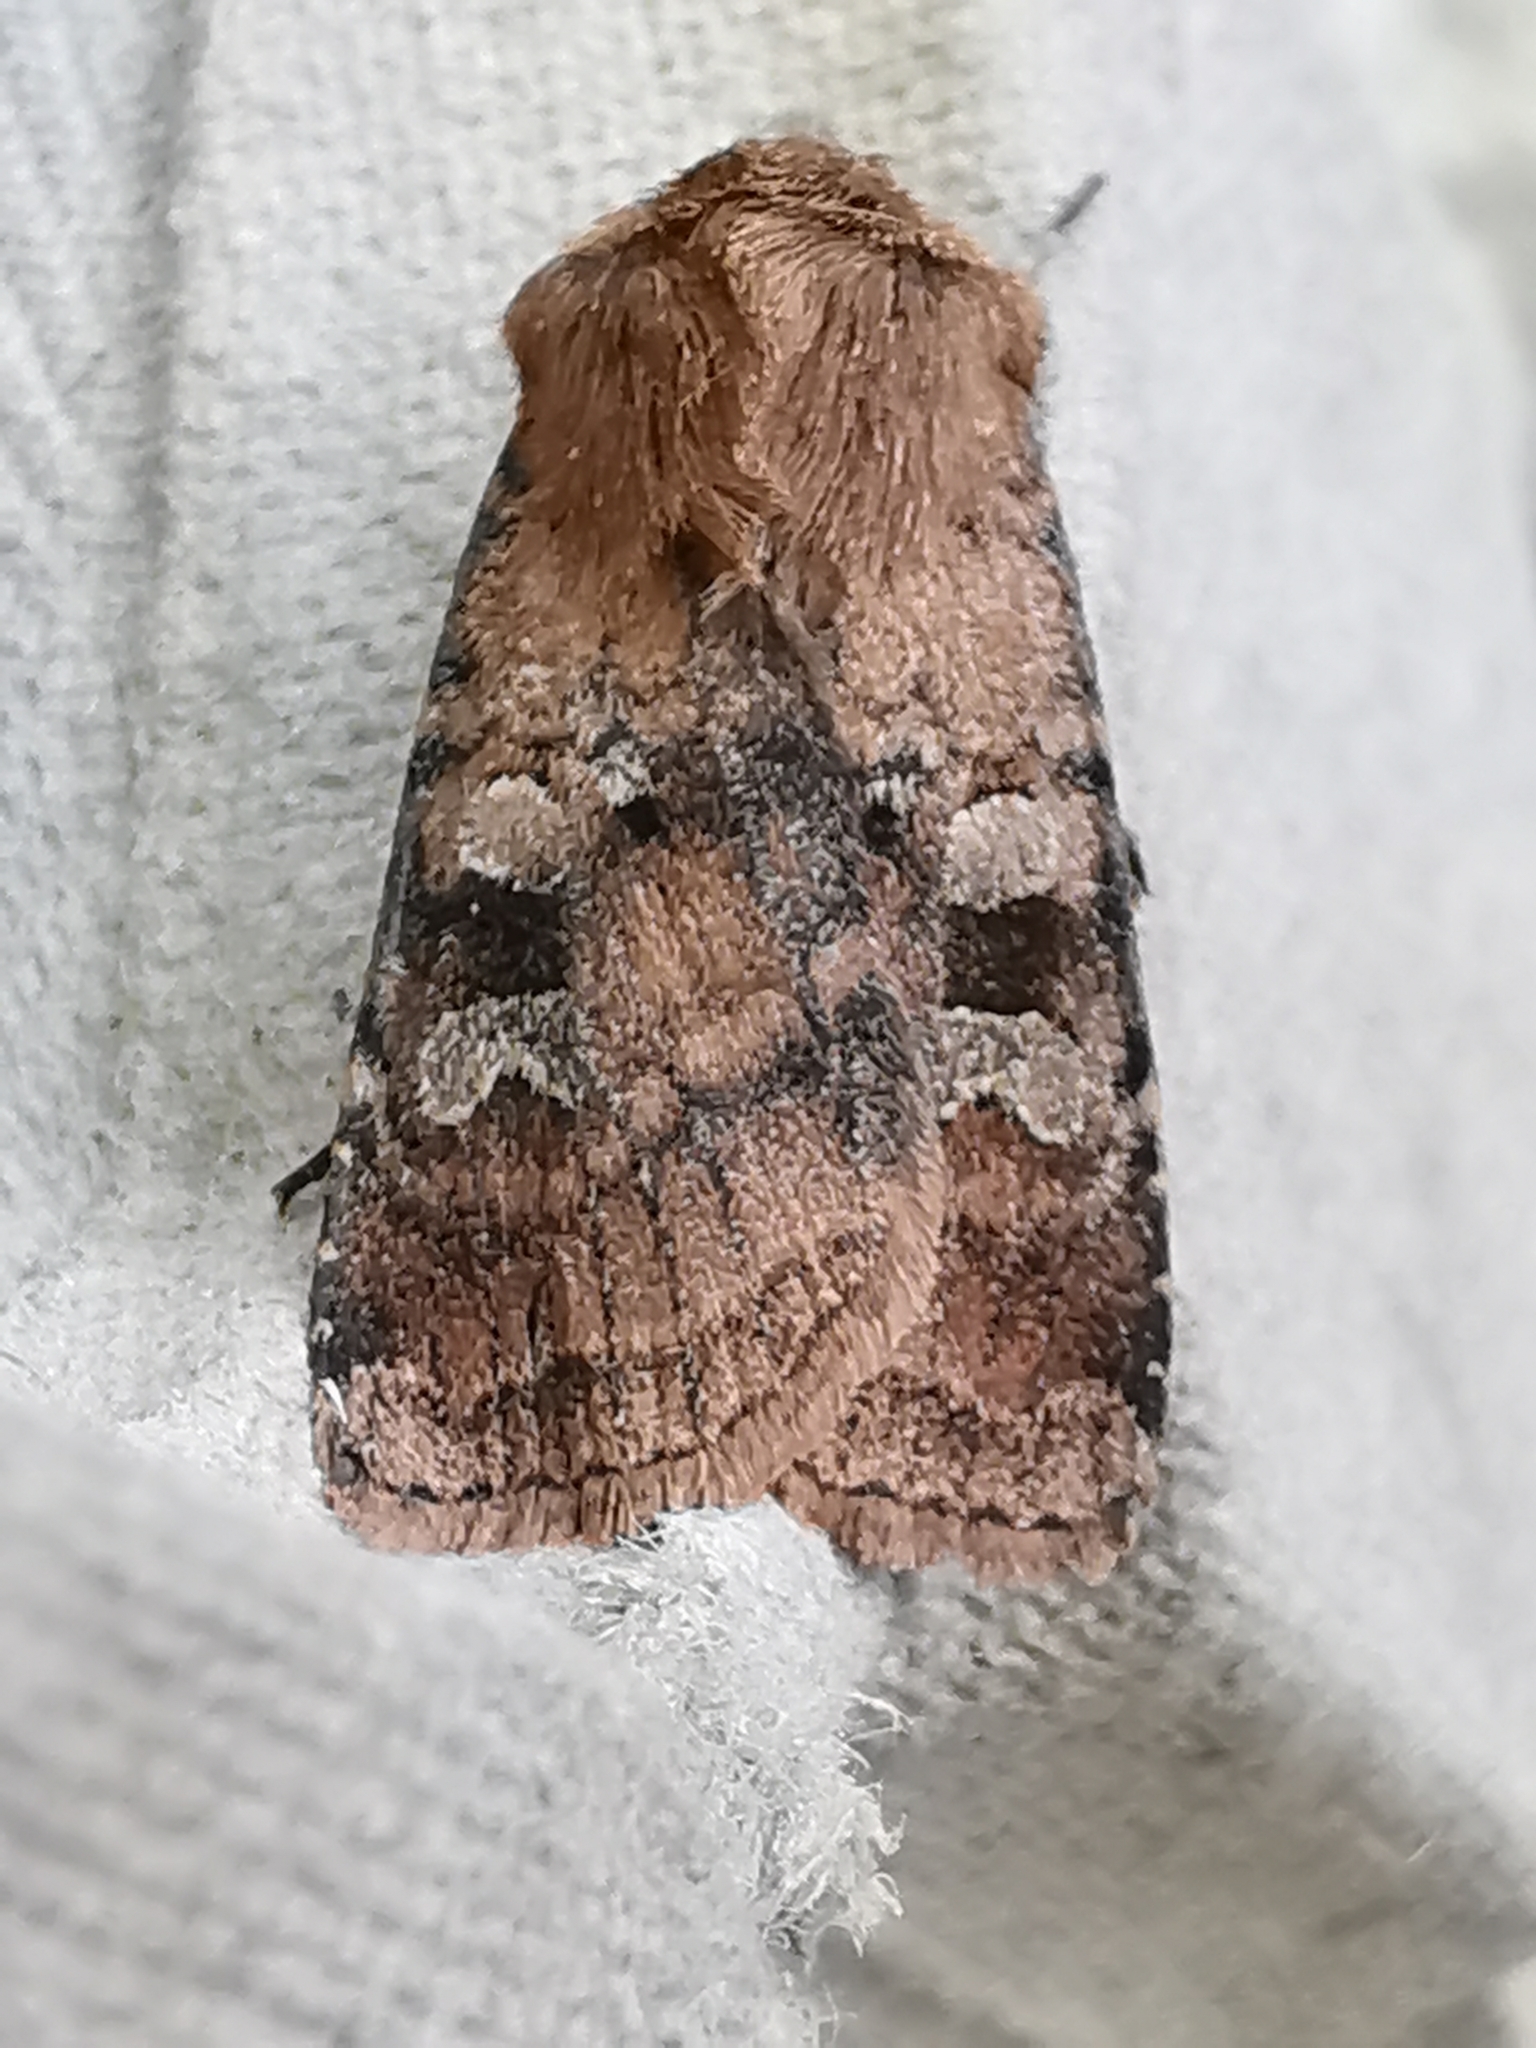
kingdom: Animalia
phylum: Arthropoda
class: Insecta
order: Lepidoptera
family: Noctuidae
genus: Diarsia
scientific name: Diarsia rubi
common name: Small square-spot
